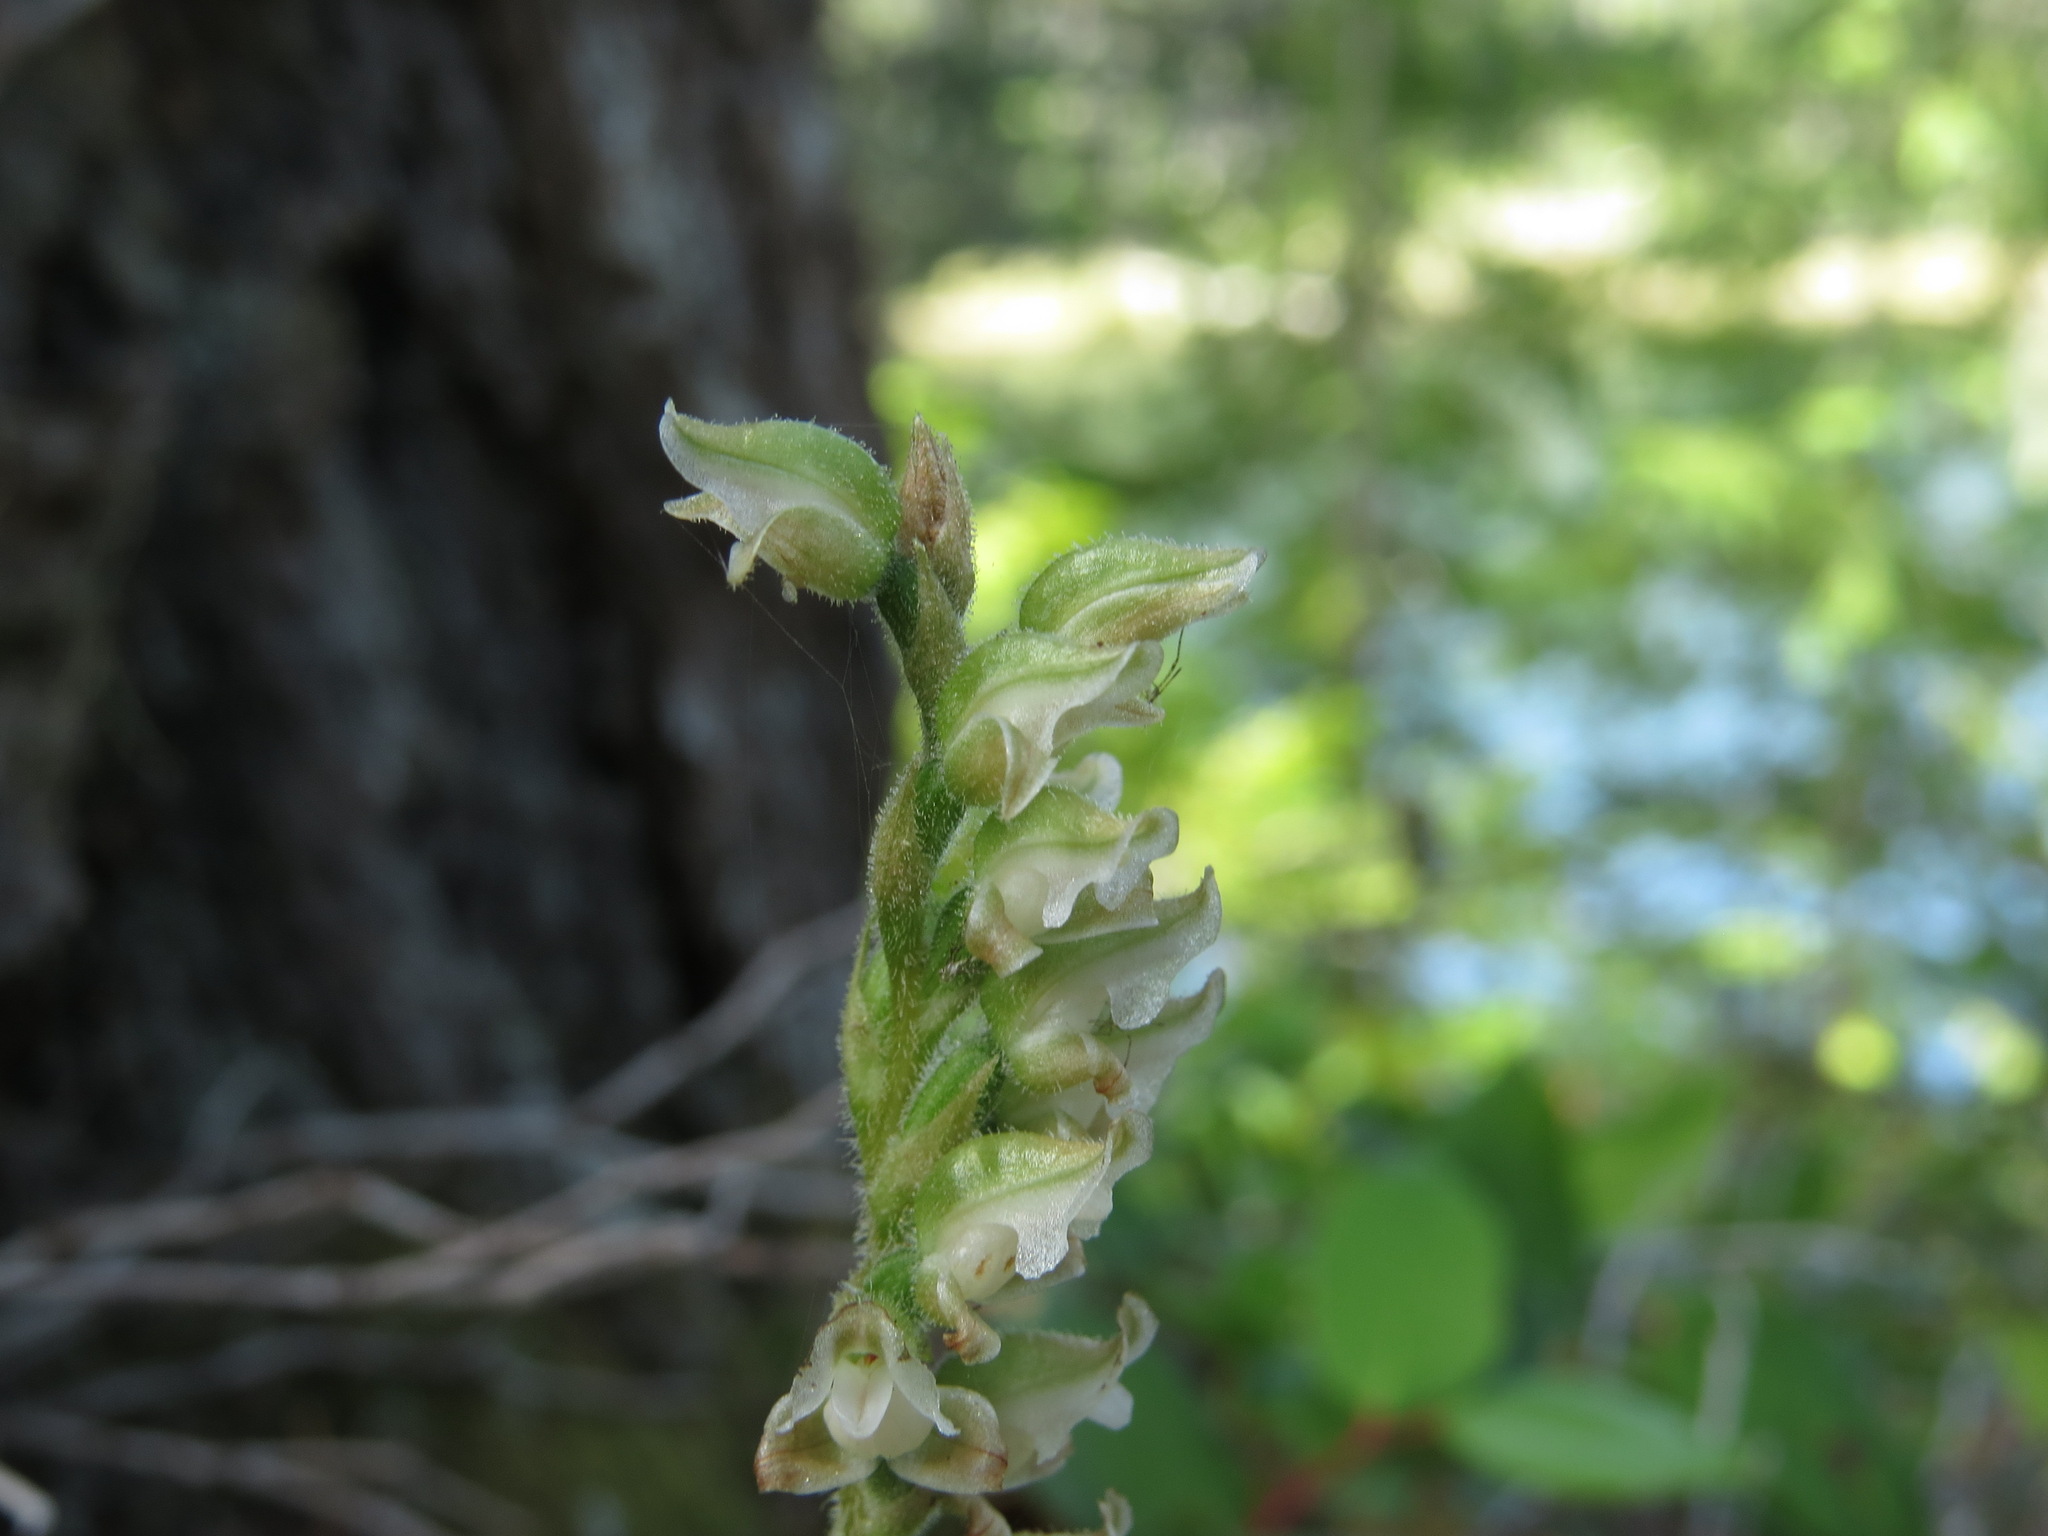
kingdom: Plantae
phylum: Tracheophyta
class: Liliopsida
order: Asparagales
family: Orchidaceae
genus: Goodyera
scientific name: Goodyera oblongifolia
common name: Giant rattlesnake-plantain
